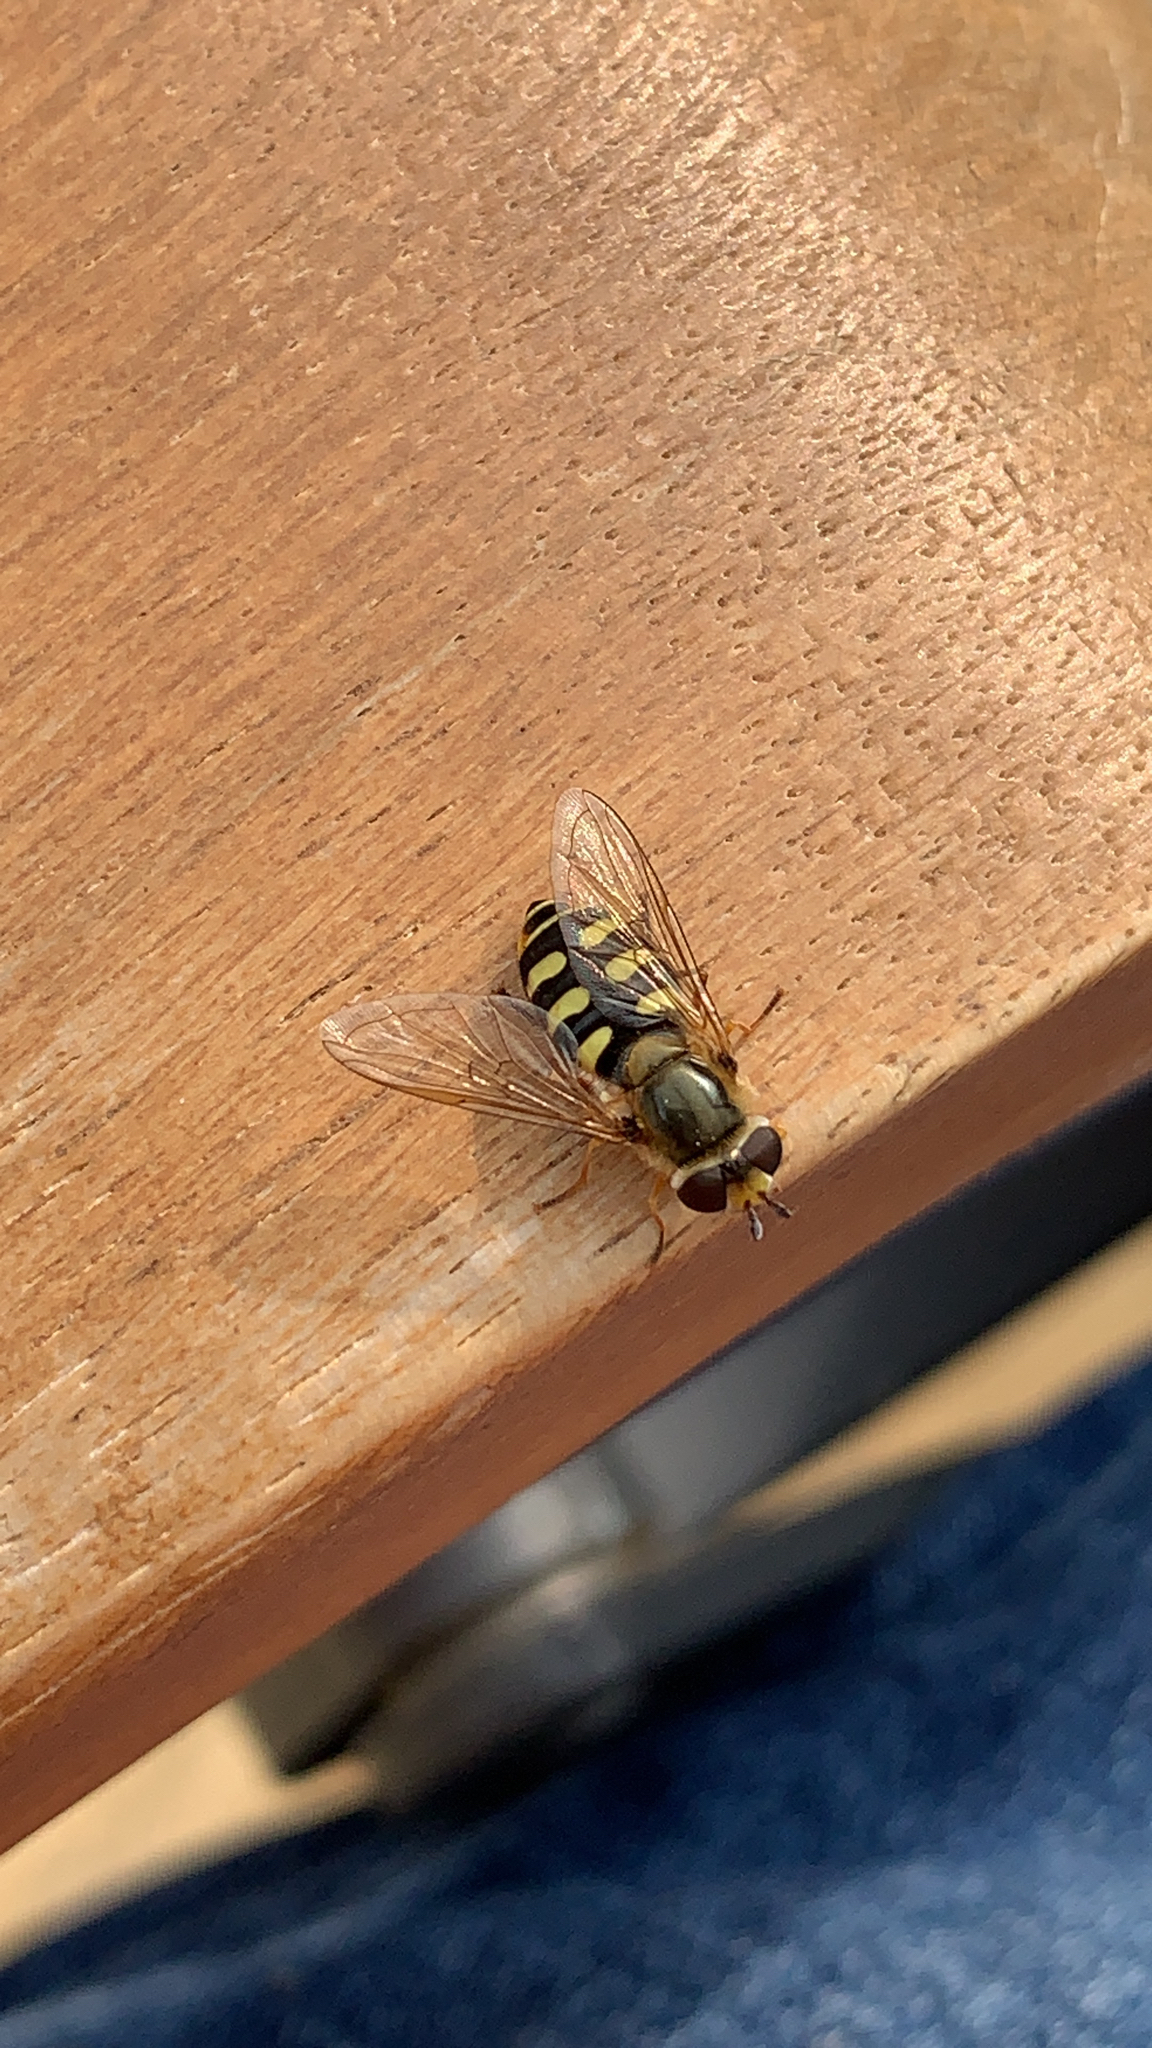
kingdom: Animalia
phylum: Arthropoda
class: Insecta
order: Diptera
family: Syrphidae
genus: Eupeodes
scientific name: Eupeodes corollae
